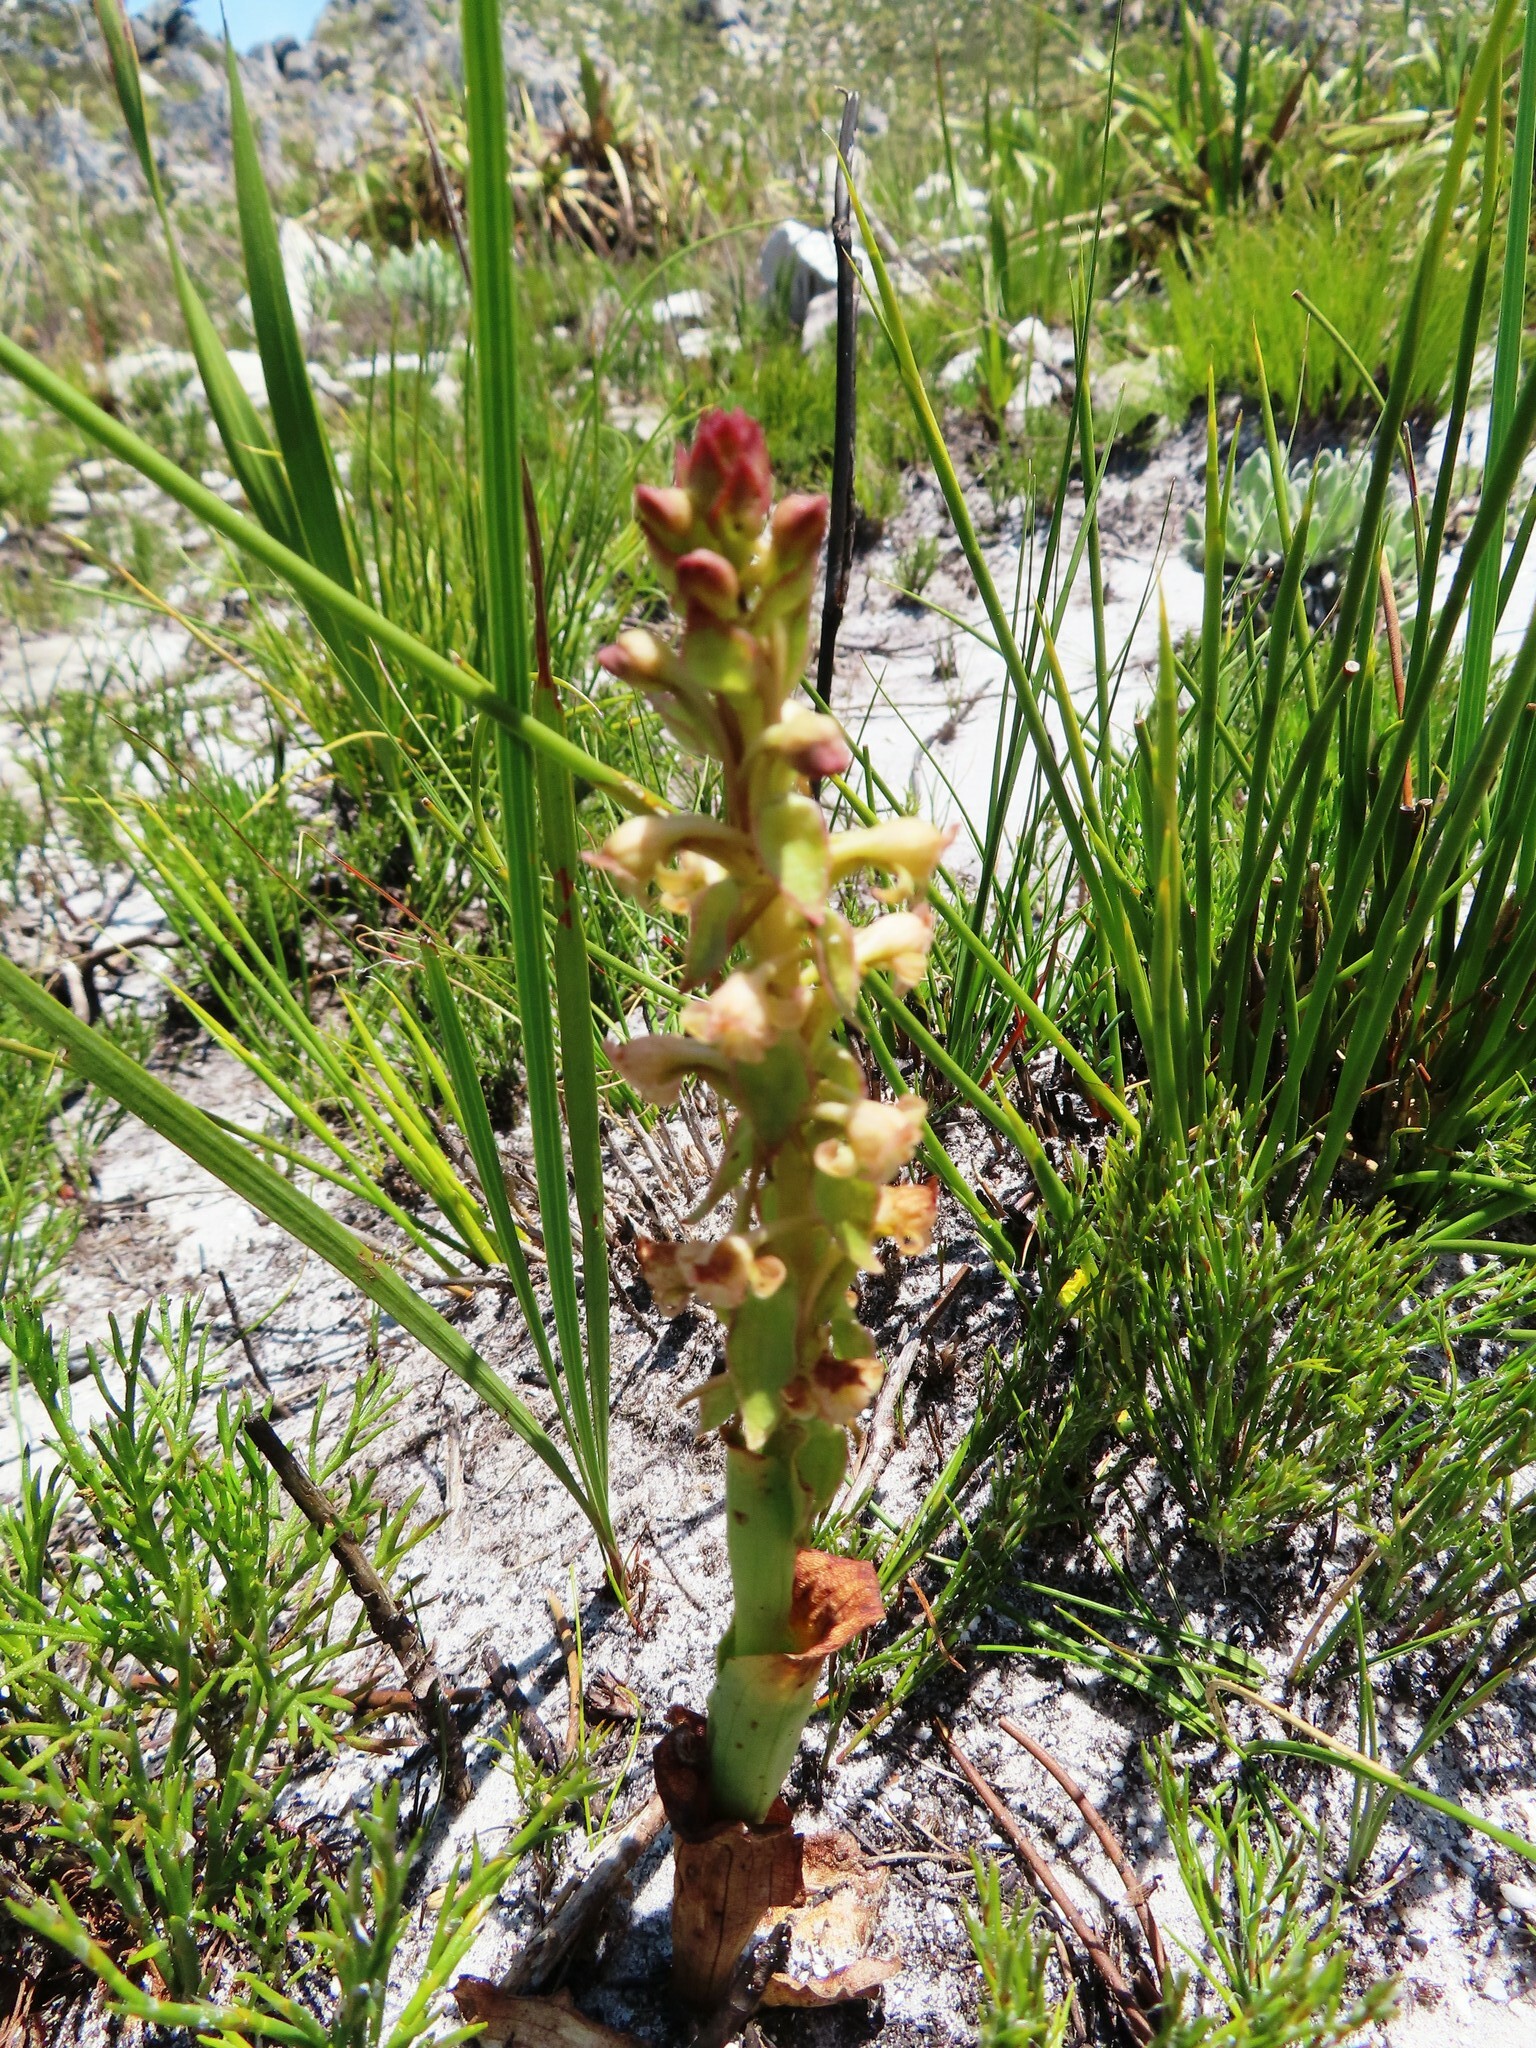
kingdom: Plantae
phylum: Tracheophyta
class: Liliopsida
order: Asparagales
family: Orchidaceae
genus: Satyrium
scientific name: Satyrium humile
